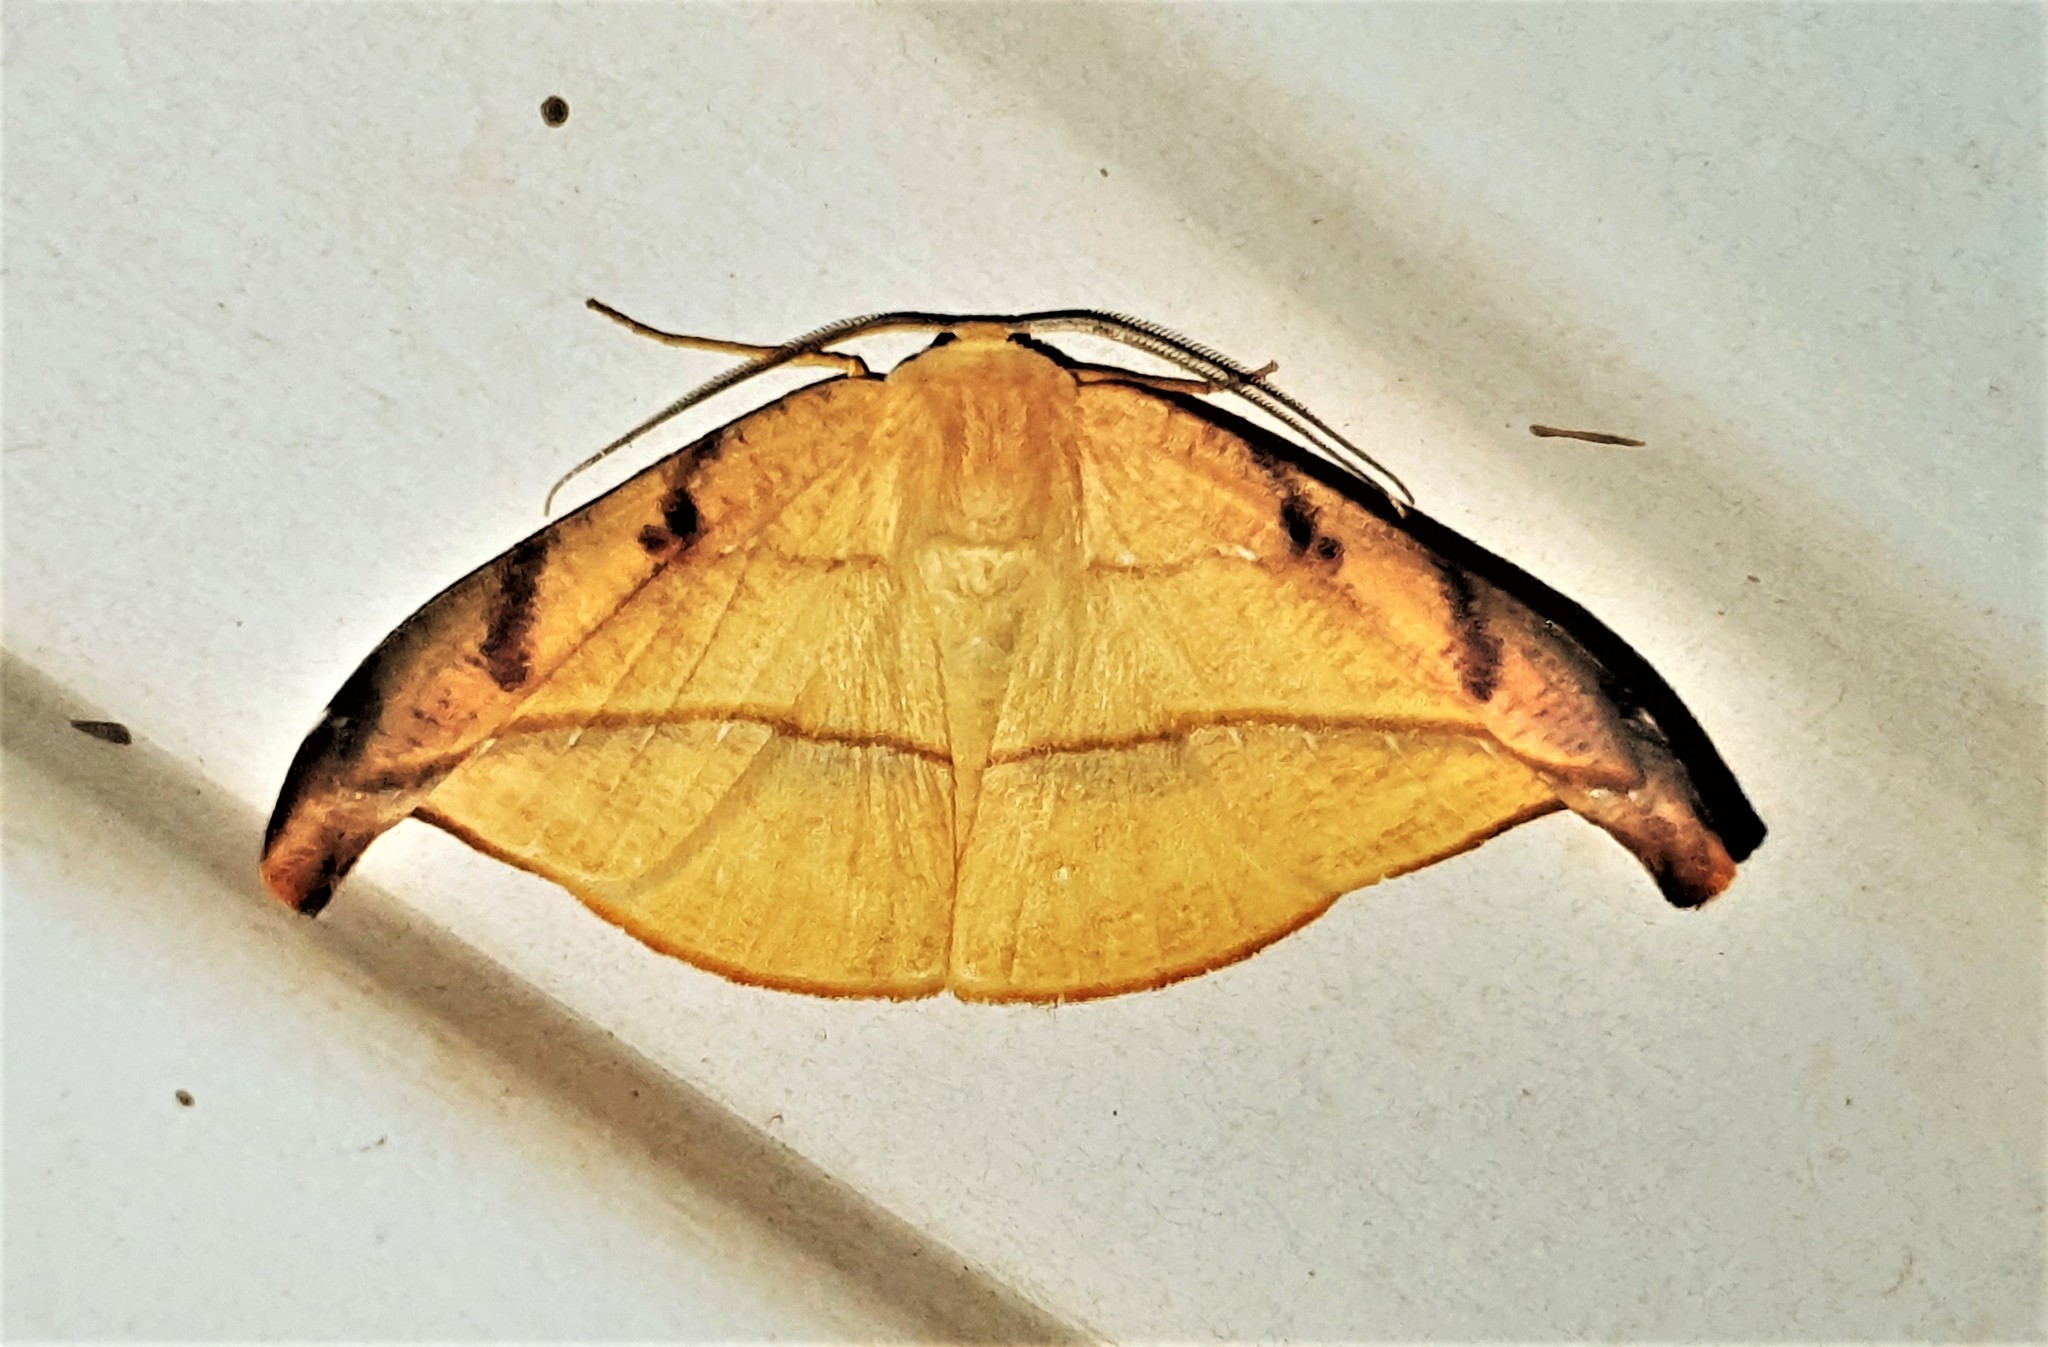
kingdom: Animalia
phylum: Arthropoda
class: Insecta
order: Lepidoptera
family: Geometridae
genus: Patalene
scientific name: Patalene luciata
